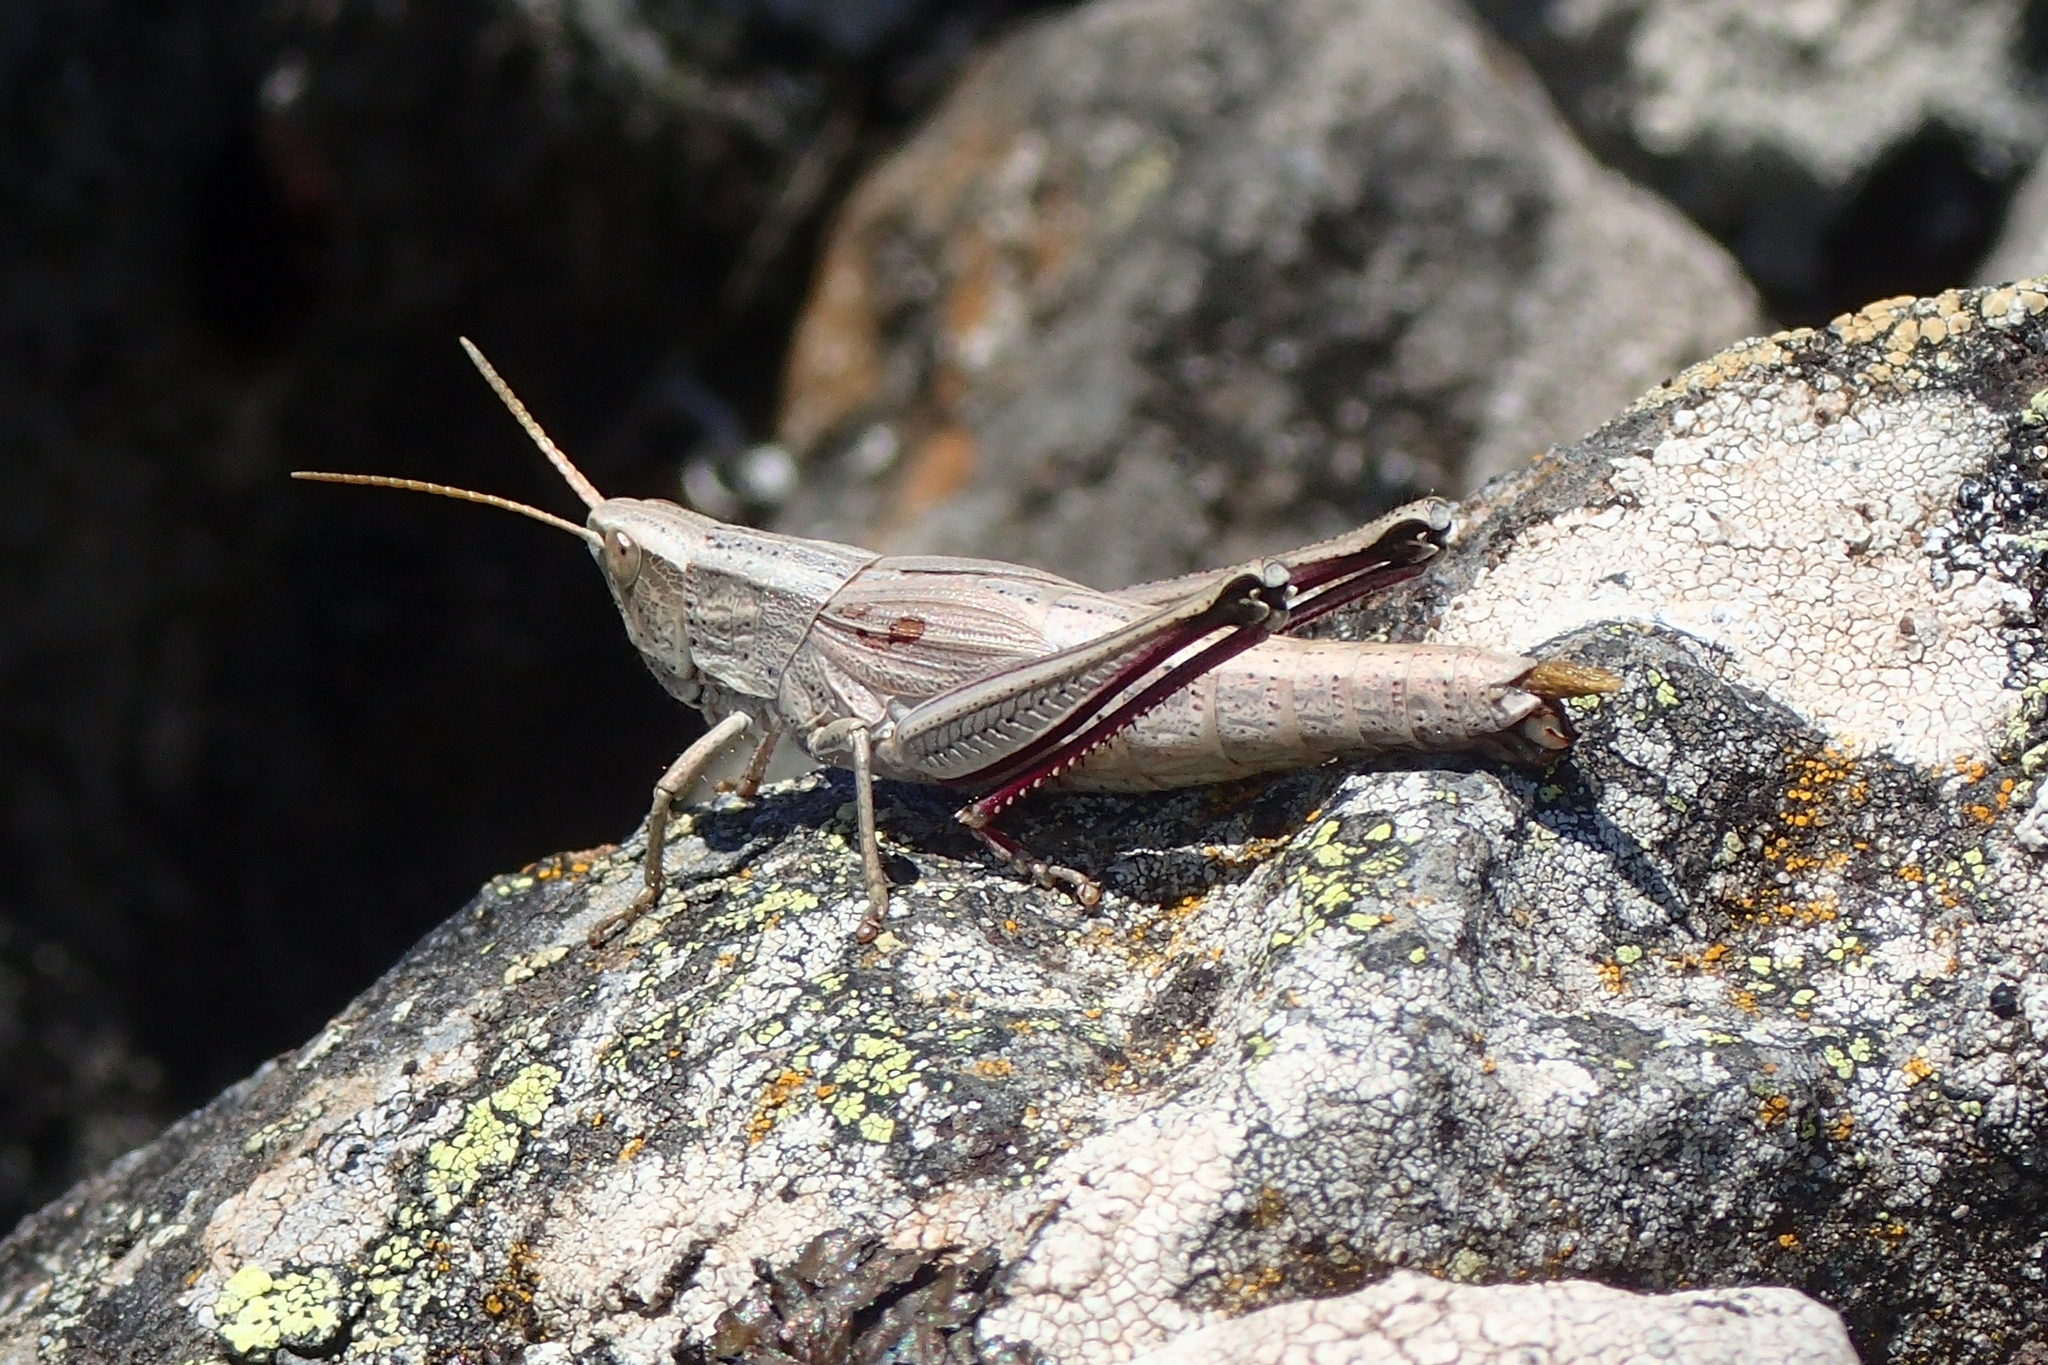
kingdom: Animalia
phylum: Arthropoda
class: Insecta
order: Orthoptera
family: Acrididae
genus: Chrysochraon
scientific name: Chrysochraon dispar
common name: Large gold grasshopper
